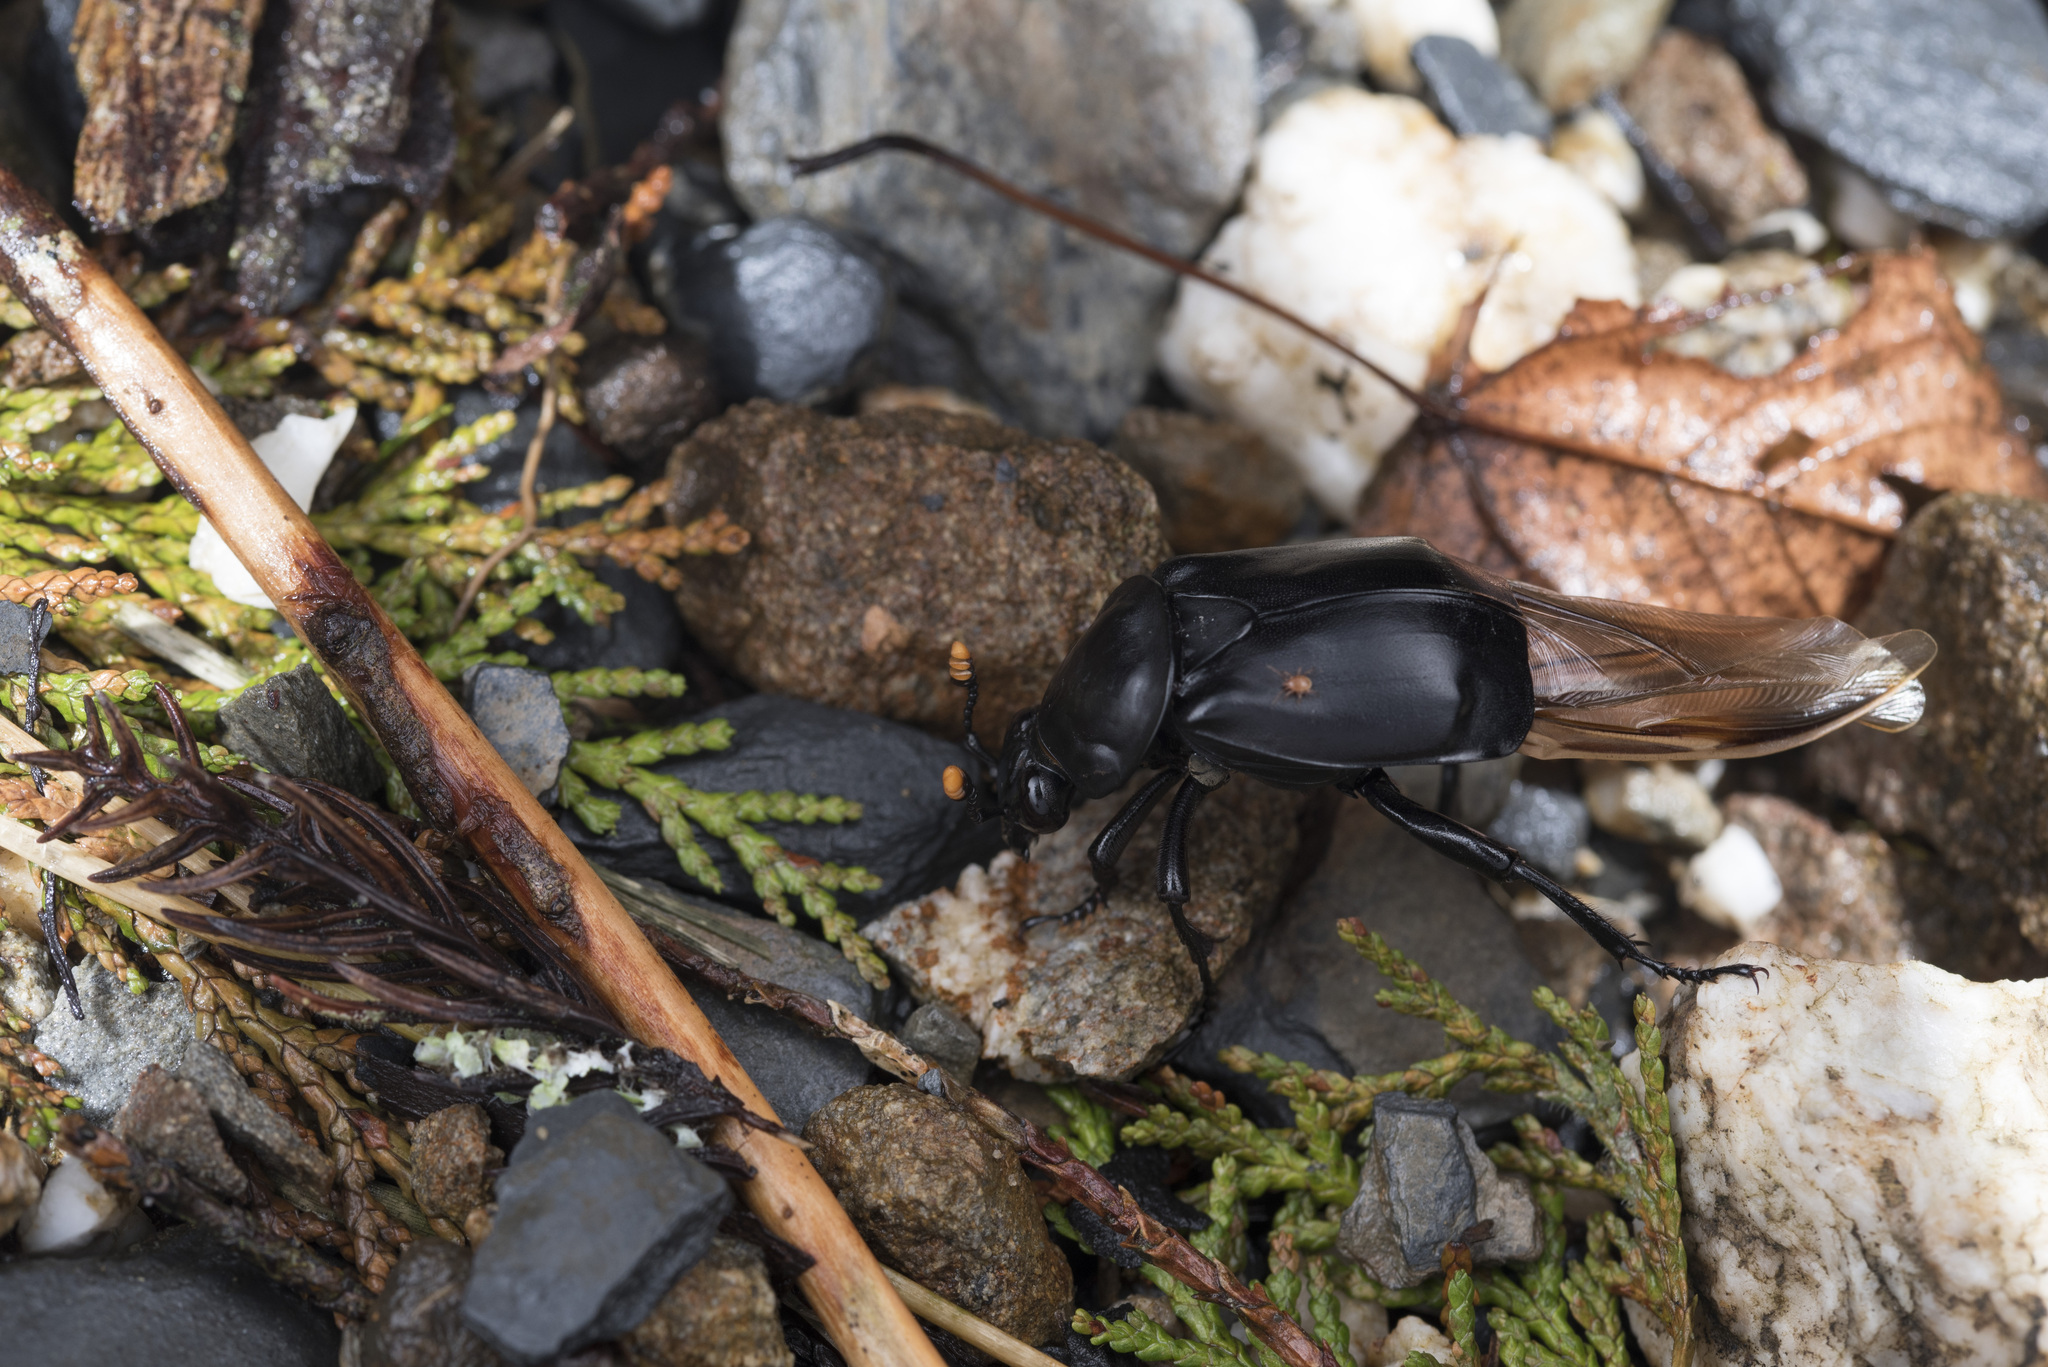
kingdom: Animalia
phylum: Arthropoda
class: Insecta
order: Coleoptera
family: Staphylinidae
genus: Nicrophorus
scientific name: Nicrophorus concolor
